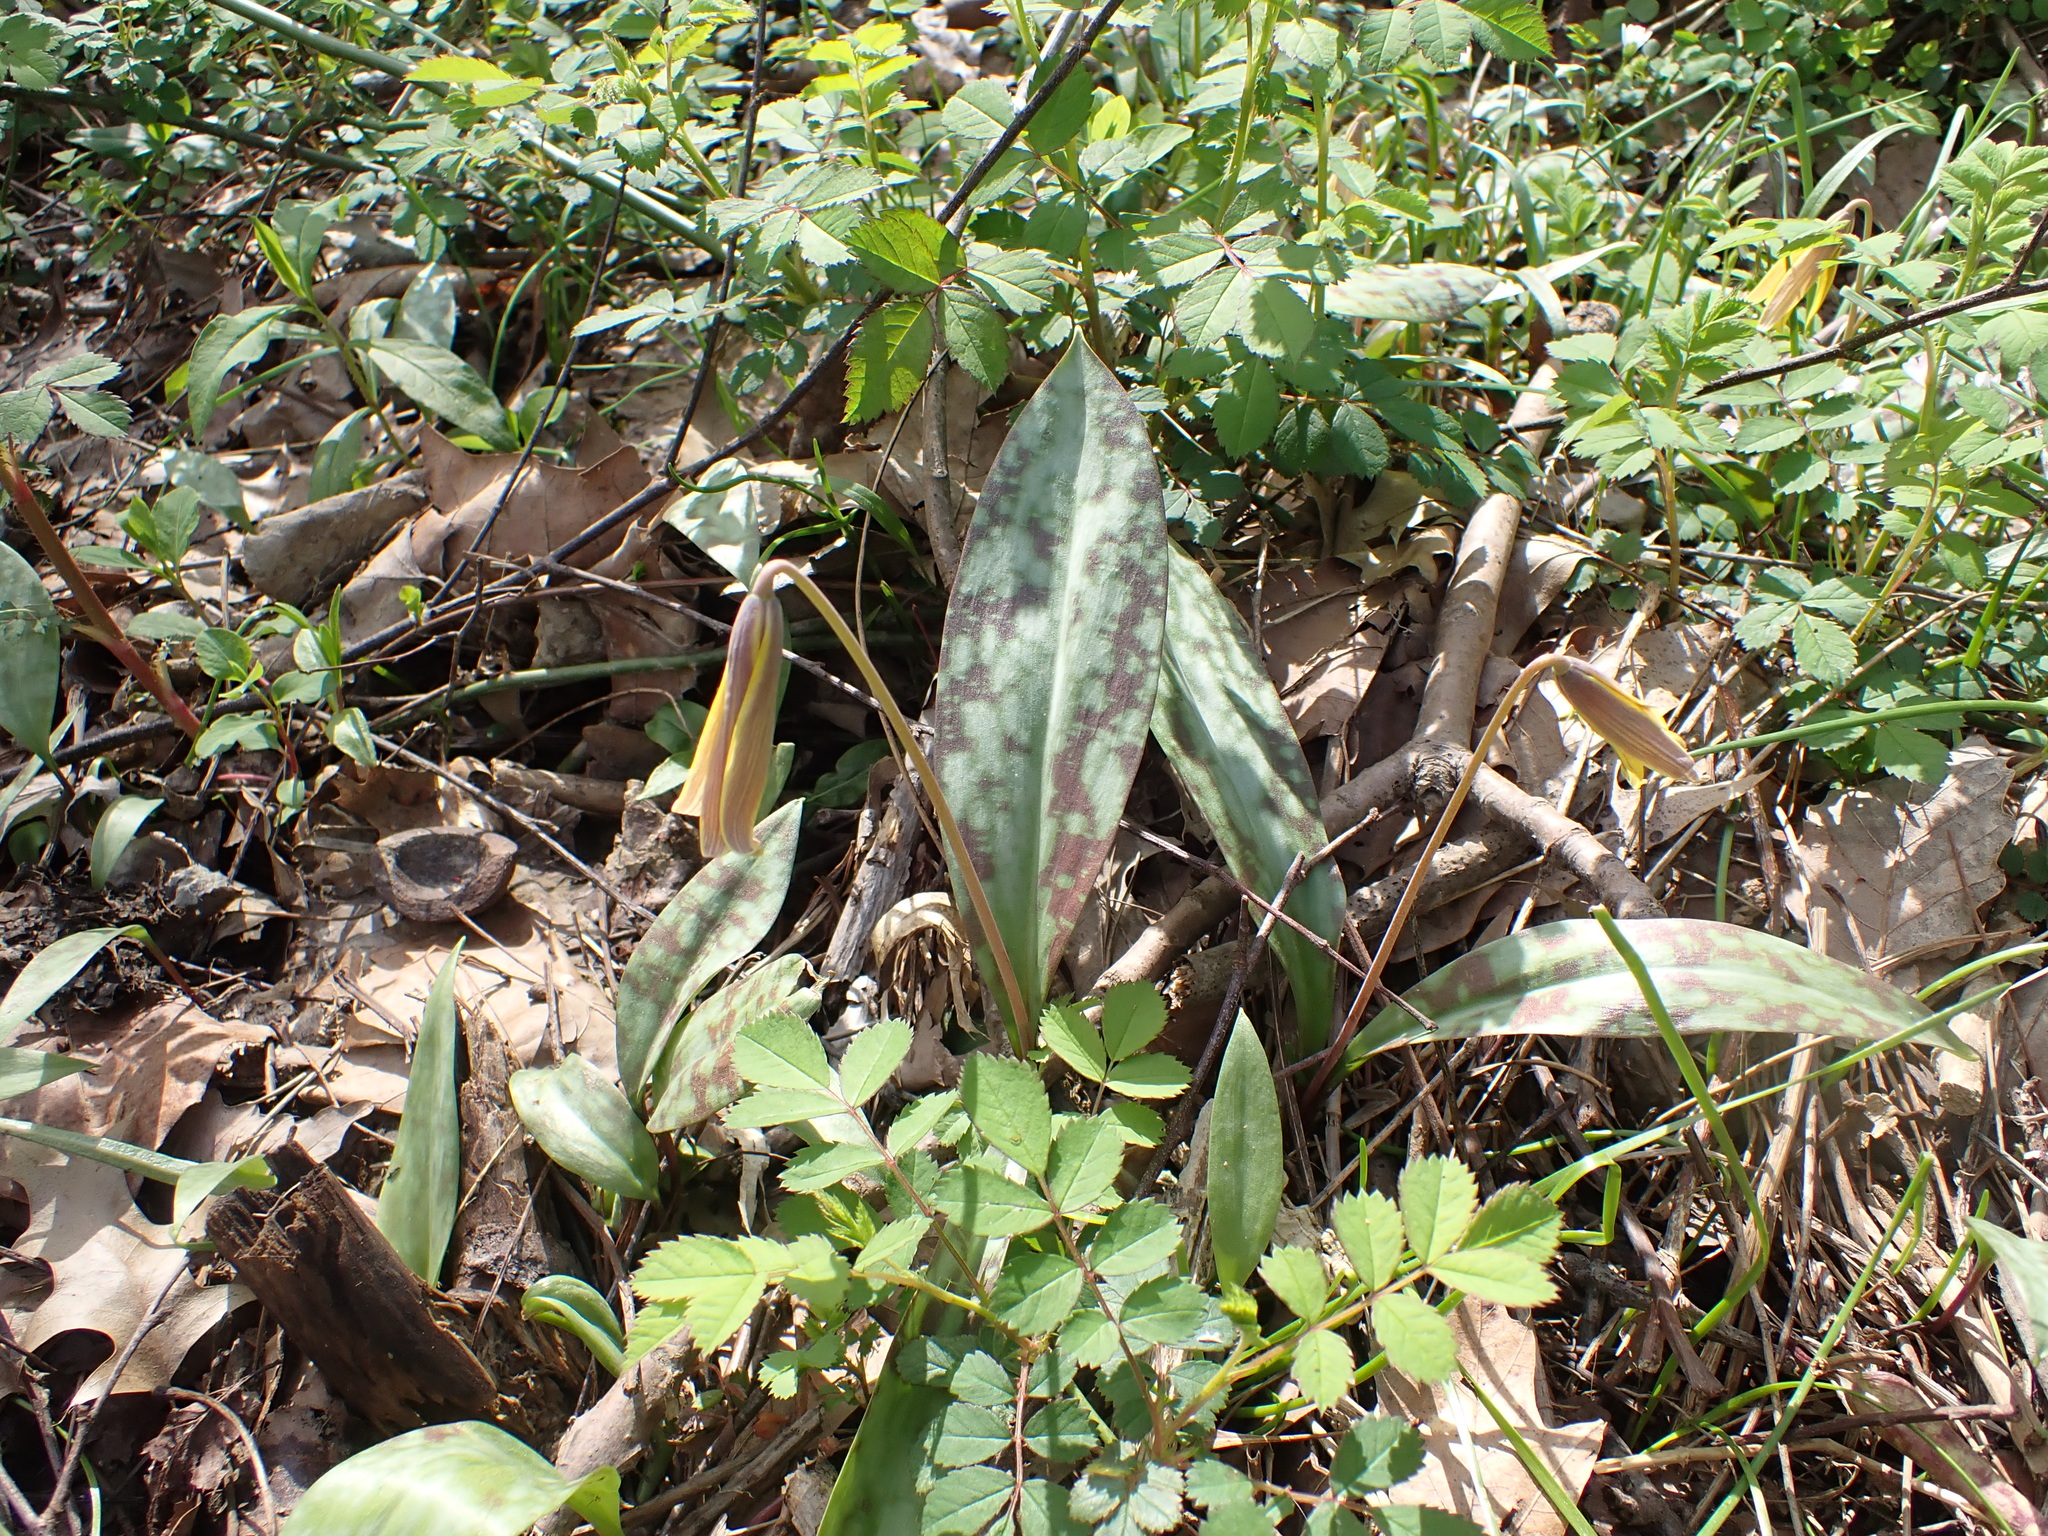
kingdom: Plantae
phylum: Tracheophyta
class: Liliopsida
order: Liliales
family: Liliaceae
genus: Erythronium
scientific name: Erythronium americanum
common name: Yellow adder's-tongue
